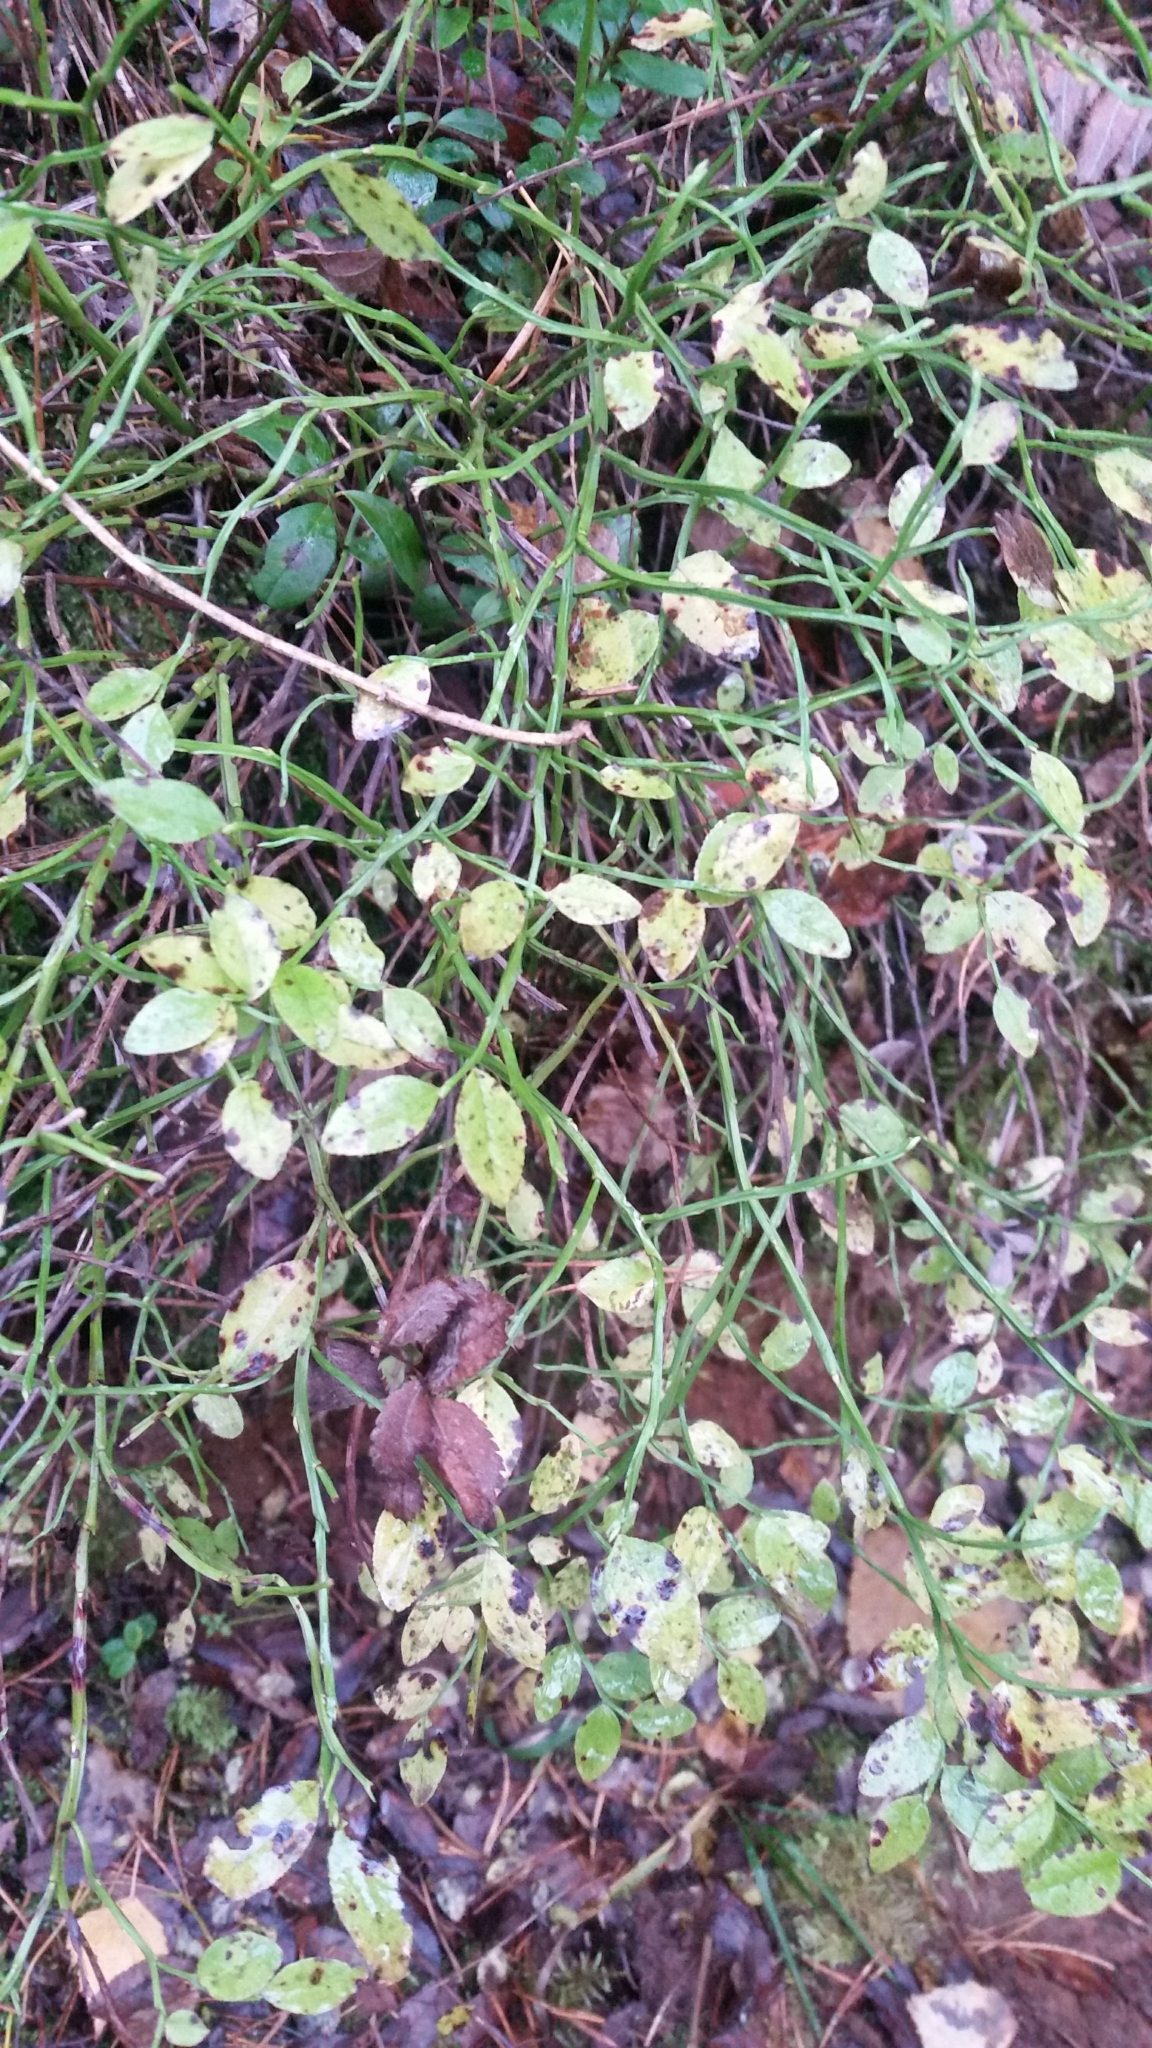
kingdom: Plantae
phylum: Tracheophyta
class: Magnoliopsida
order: Ericales
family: Ericaceae
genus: Vaccinium
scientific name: Vaccinium myrtillus
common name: Bilberry
